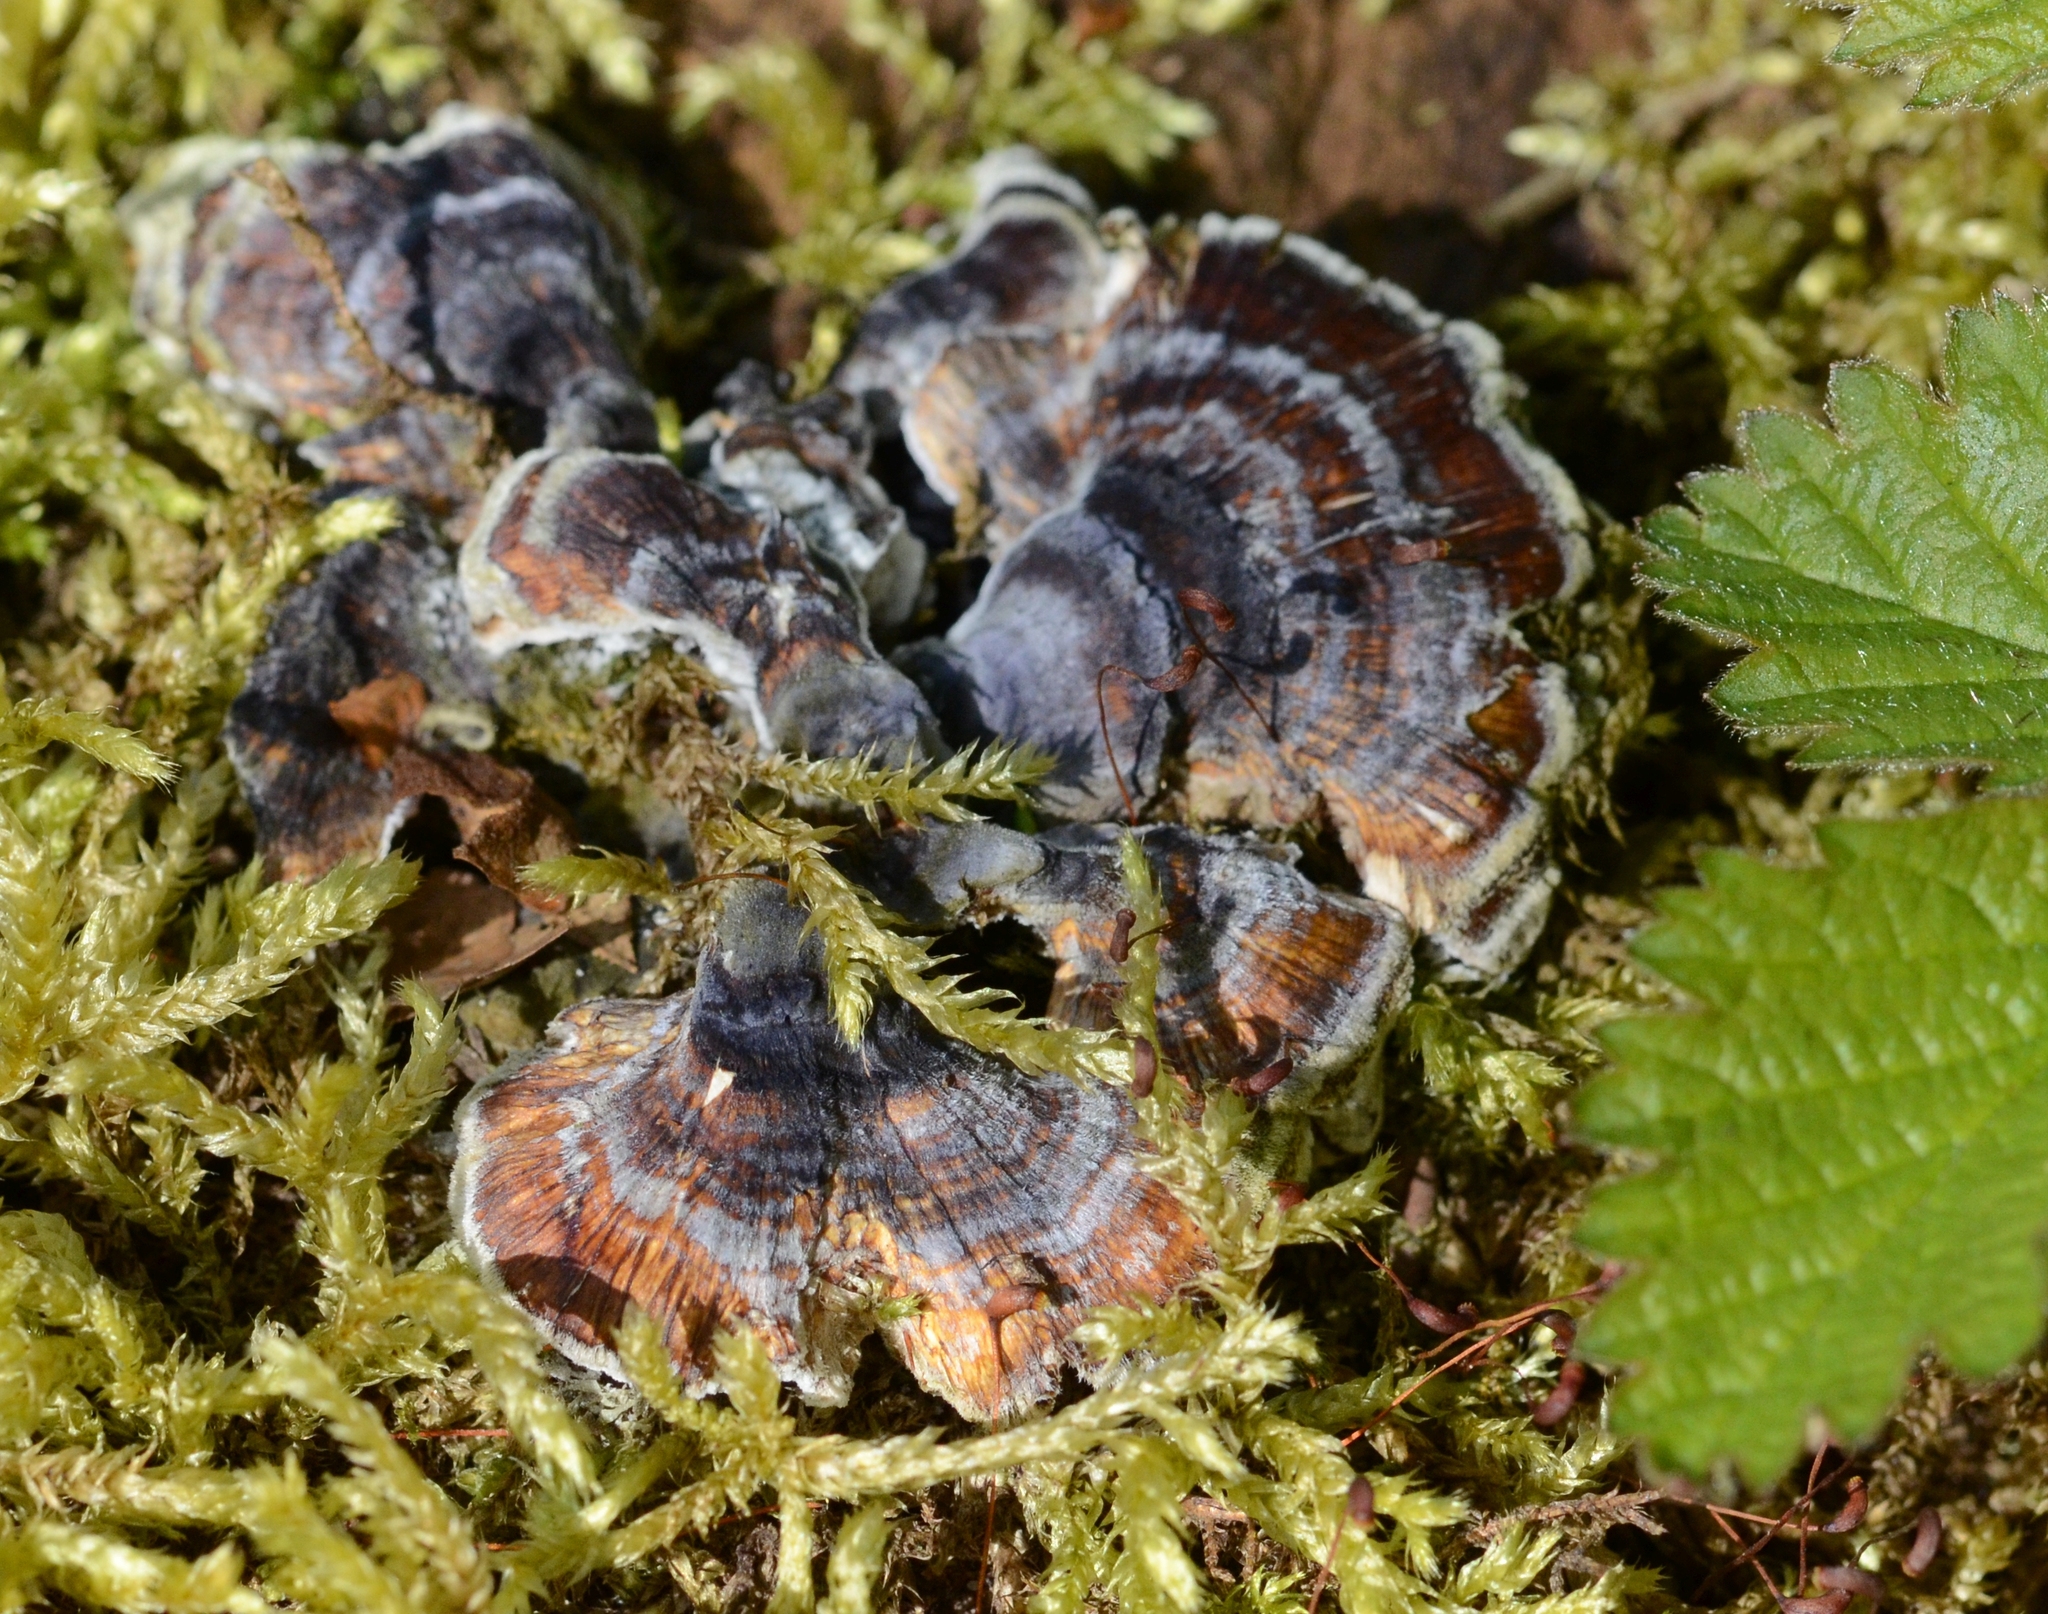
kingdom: Fungi
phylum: Basidiomycota
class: Agaricomycetes
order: Polyporales
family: Polyporaceae
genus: Trametes
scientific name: Trametes versicolor
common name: Turkeytail
